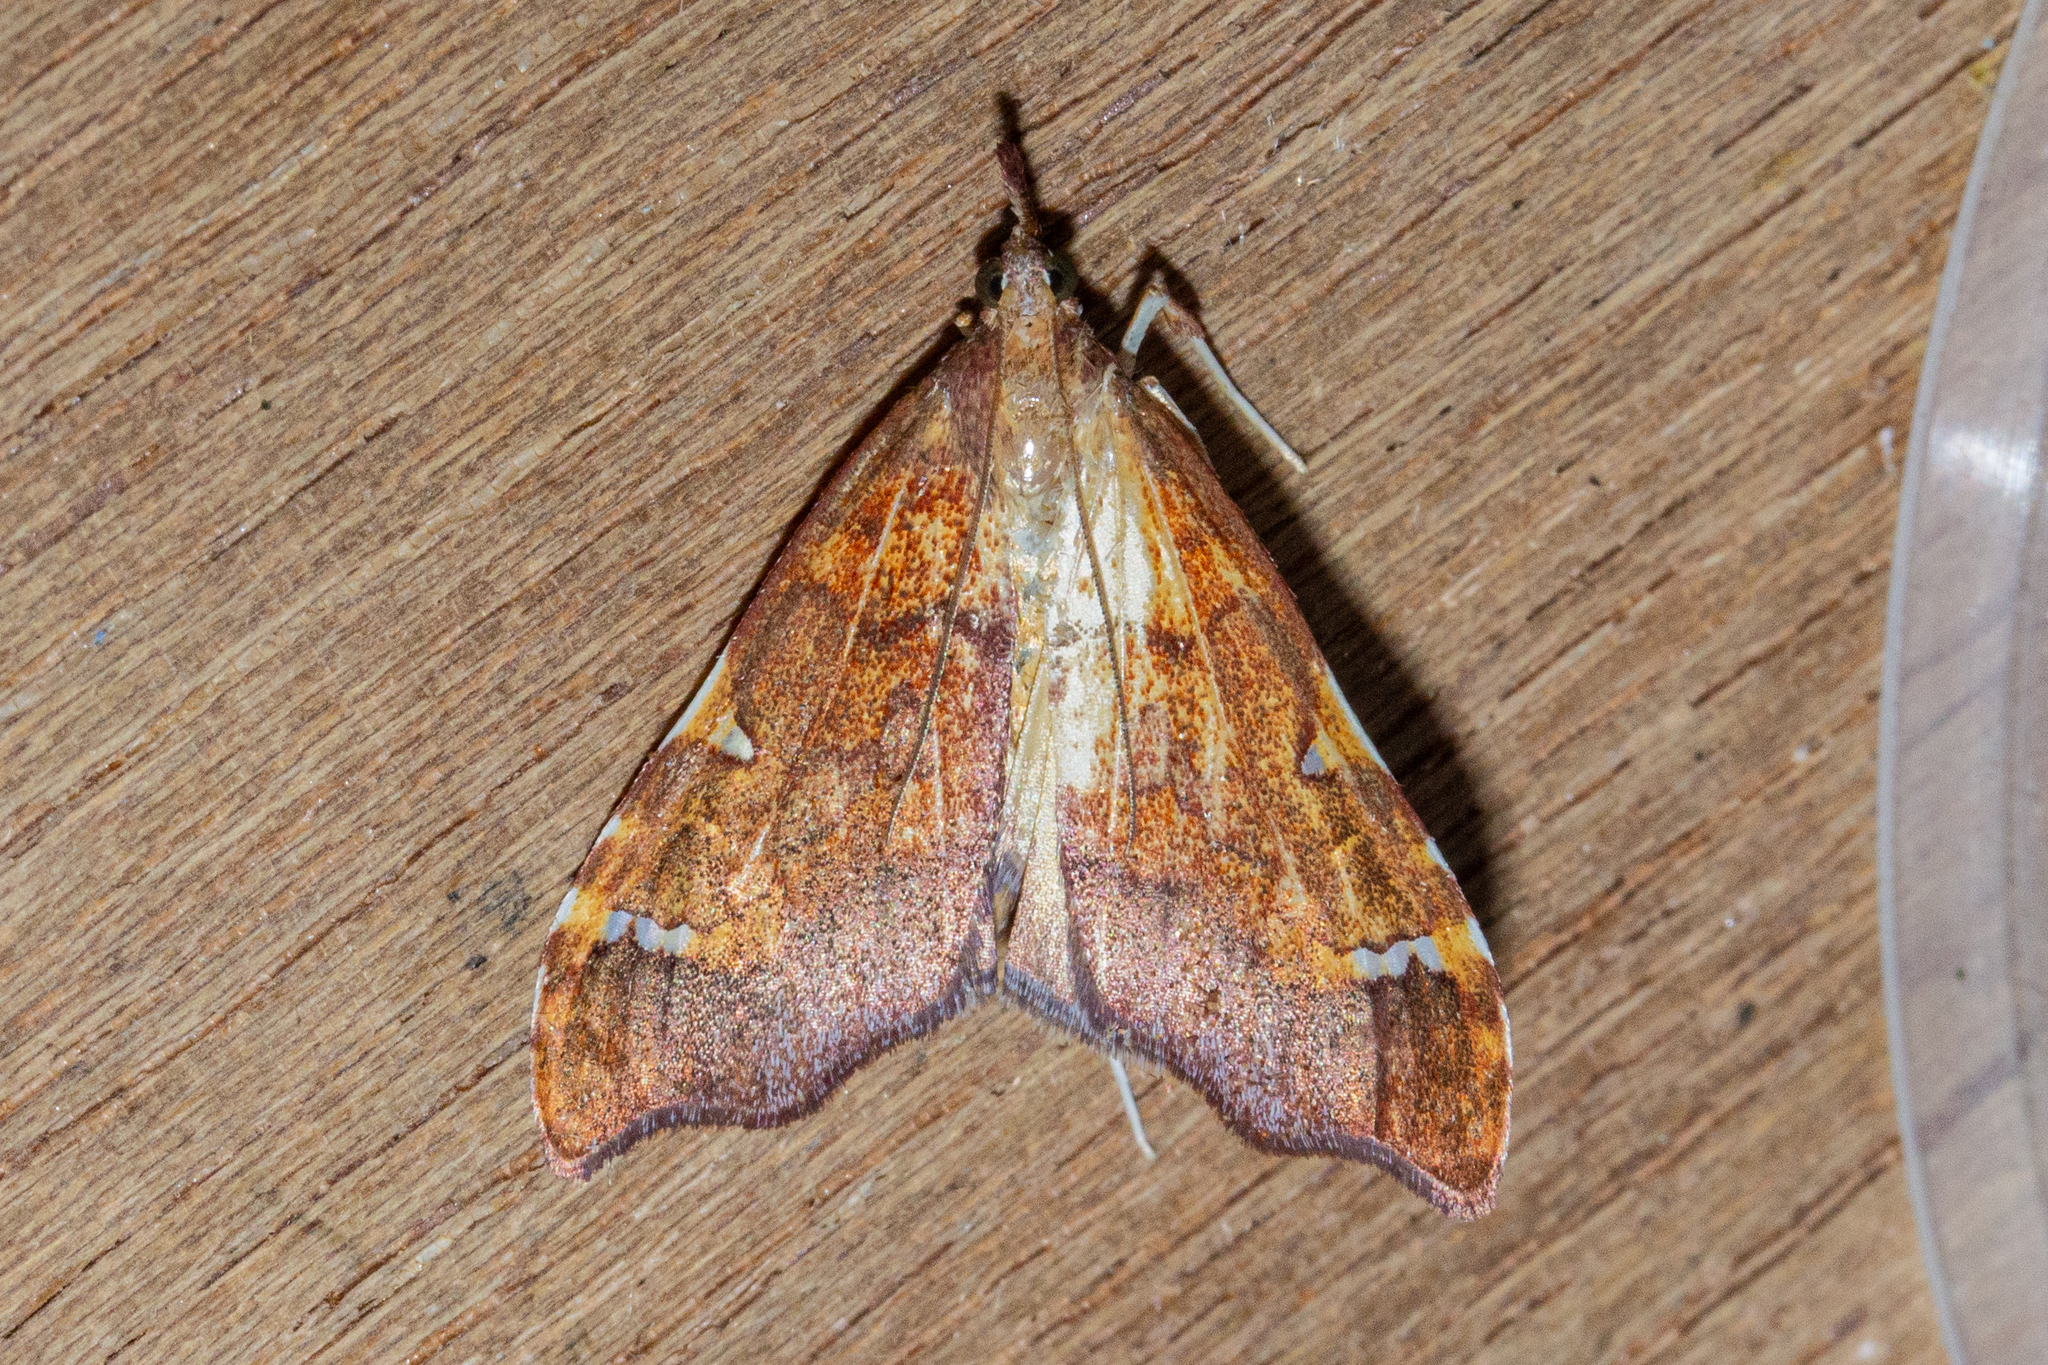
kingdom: Animalia
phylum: Arthropoda
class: Insecta
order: Lepidoptera
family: Crambidae
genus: Deana
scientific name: Deana hybreasalis
